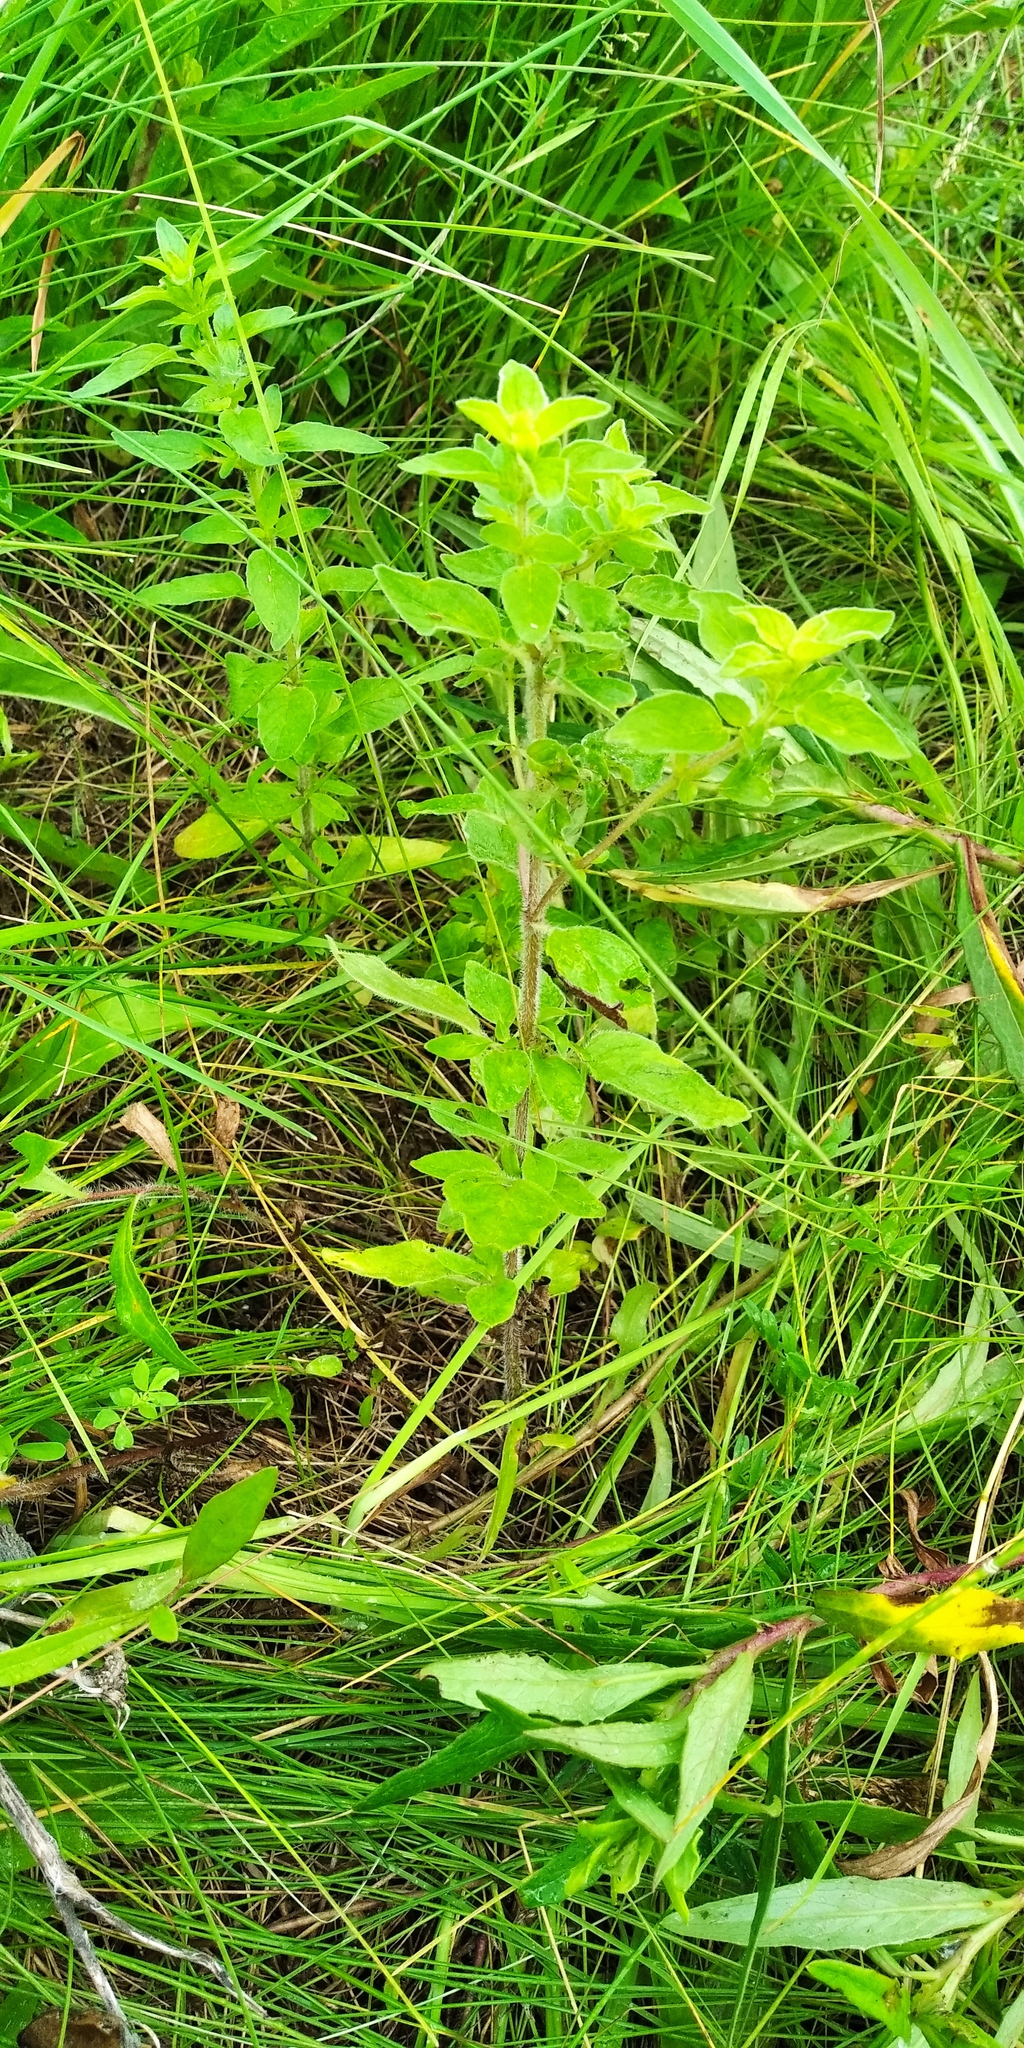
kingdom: Plantae
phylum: Tracheophyta
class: Magnoliopsida
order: Lamiales
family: Lamiaceae
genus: Origanum
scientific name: Origanum vulgare
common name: Wild marjoram
